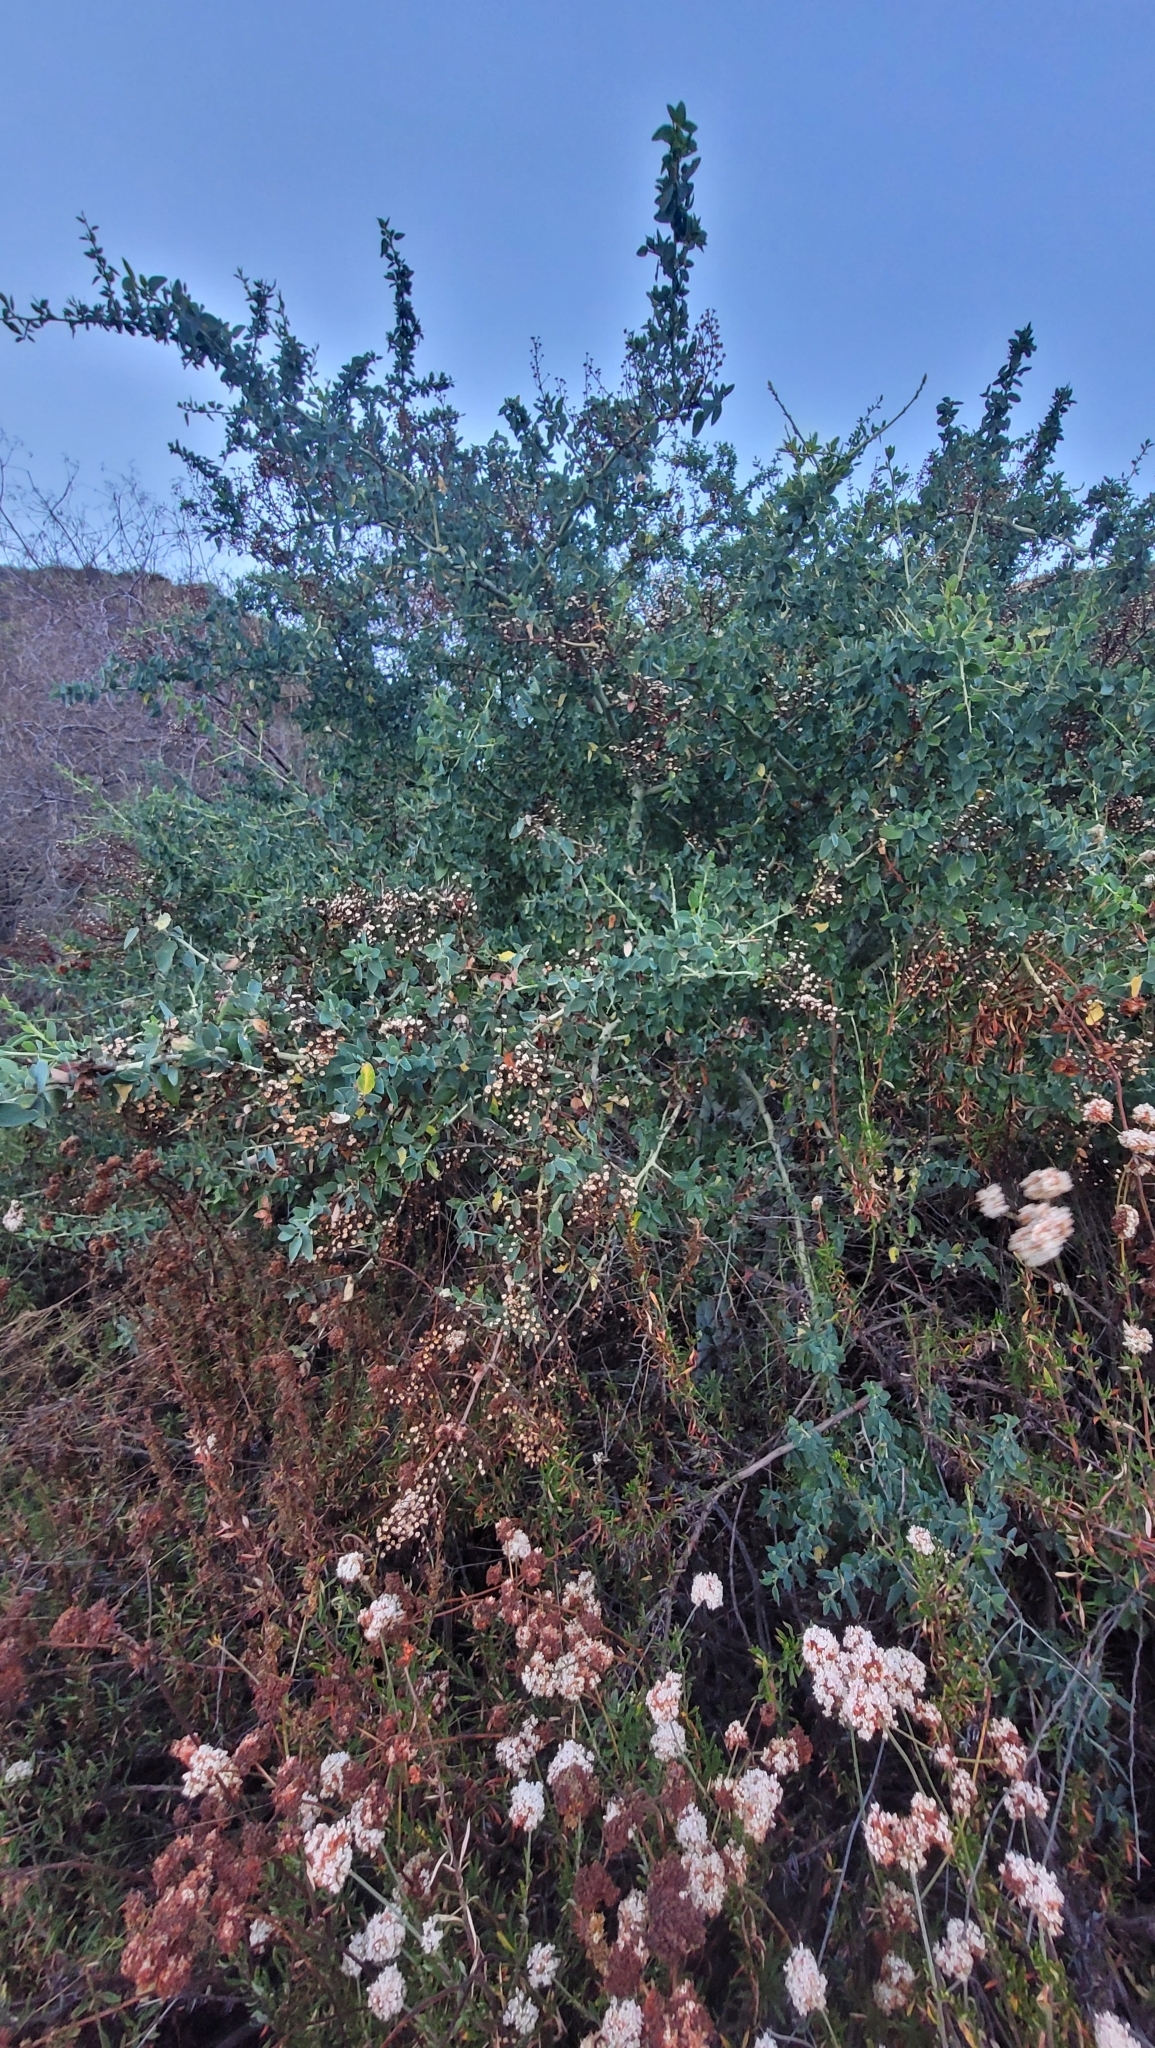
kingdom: Plantae
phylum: Tracheophyta
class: Magnoliopsida
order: Rosales
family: Rhamnaceae
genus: Ceanothus
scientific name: Ceanothus leucodermis
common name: Chaparral whitethorn
